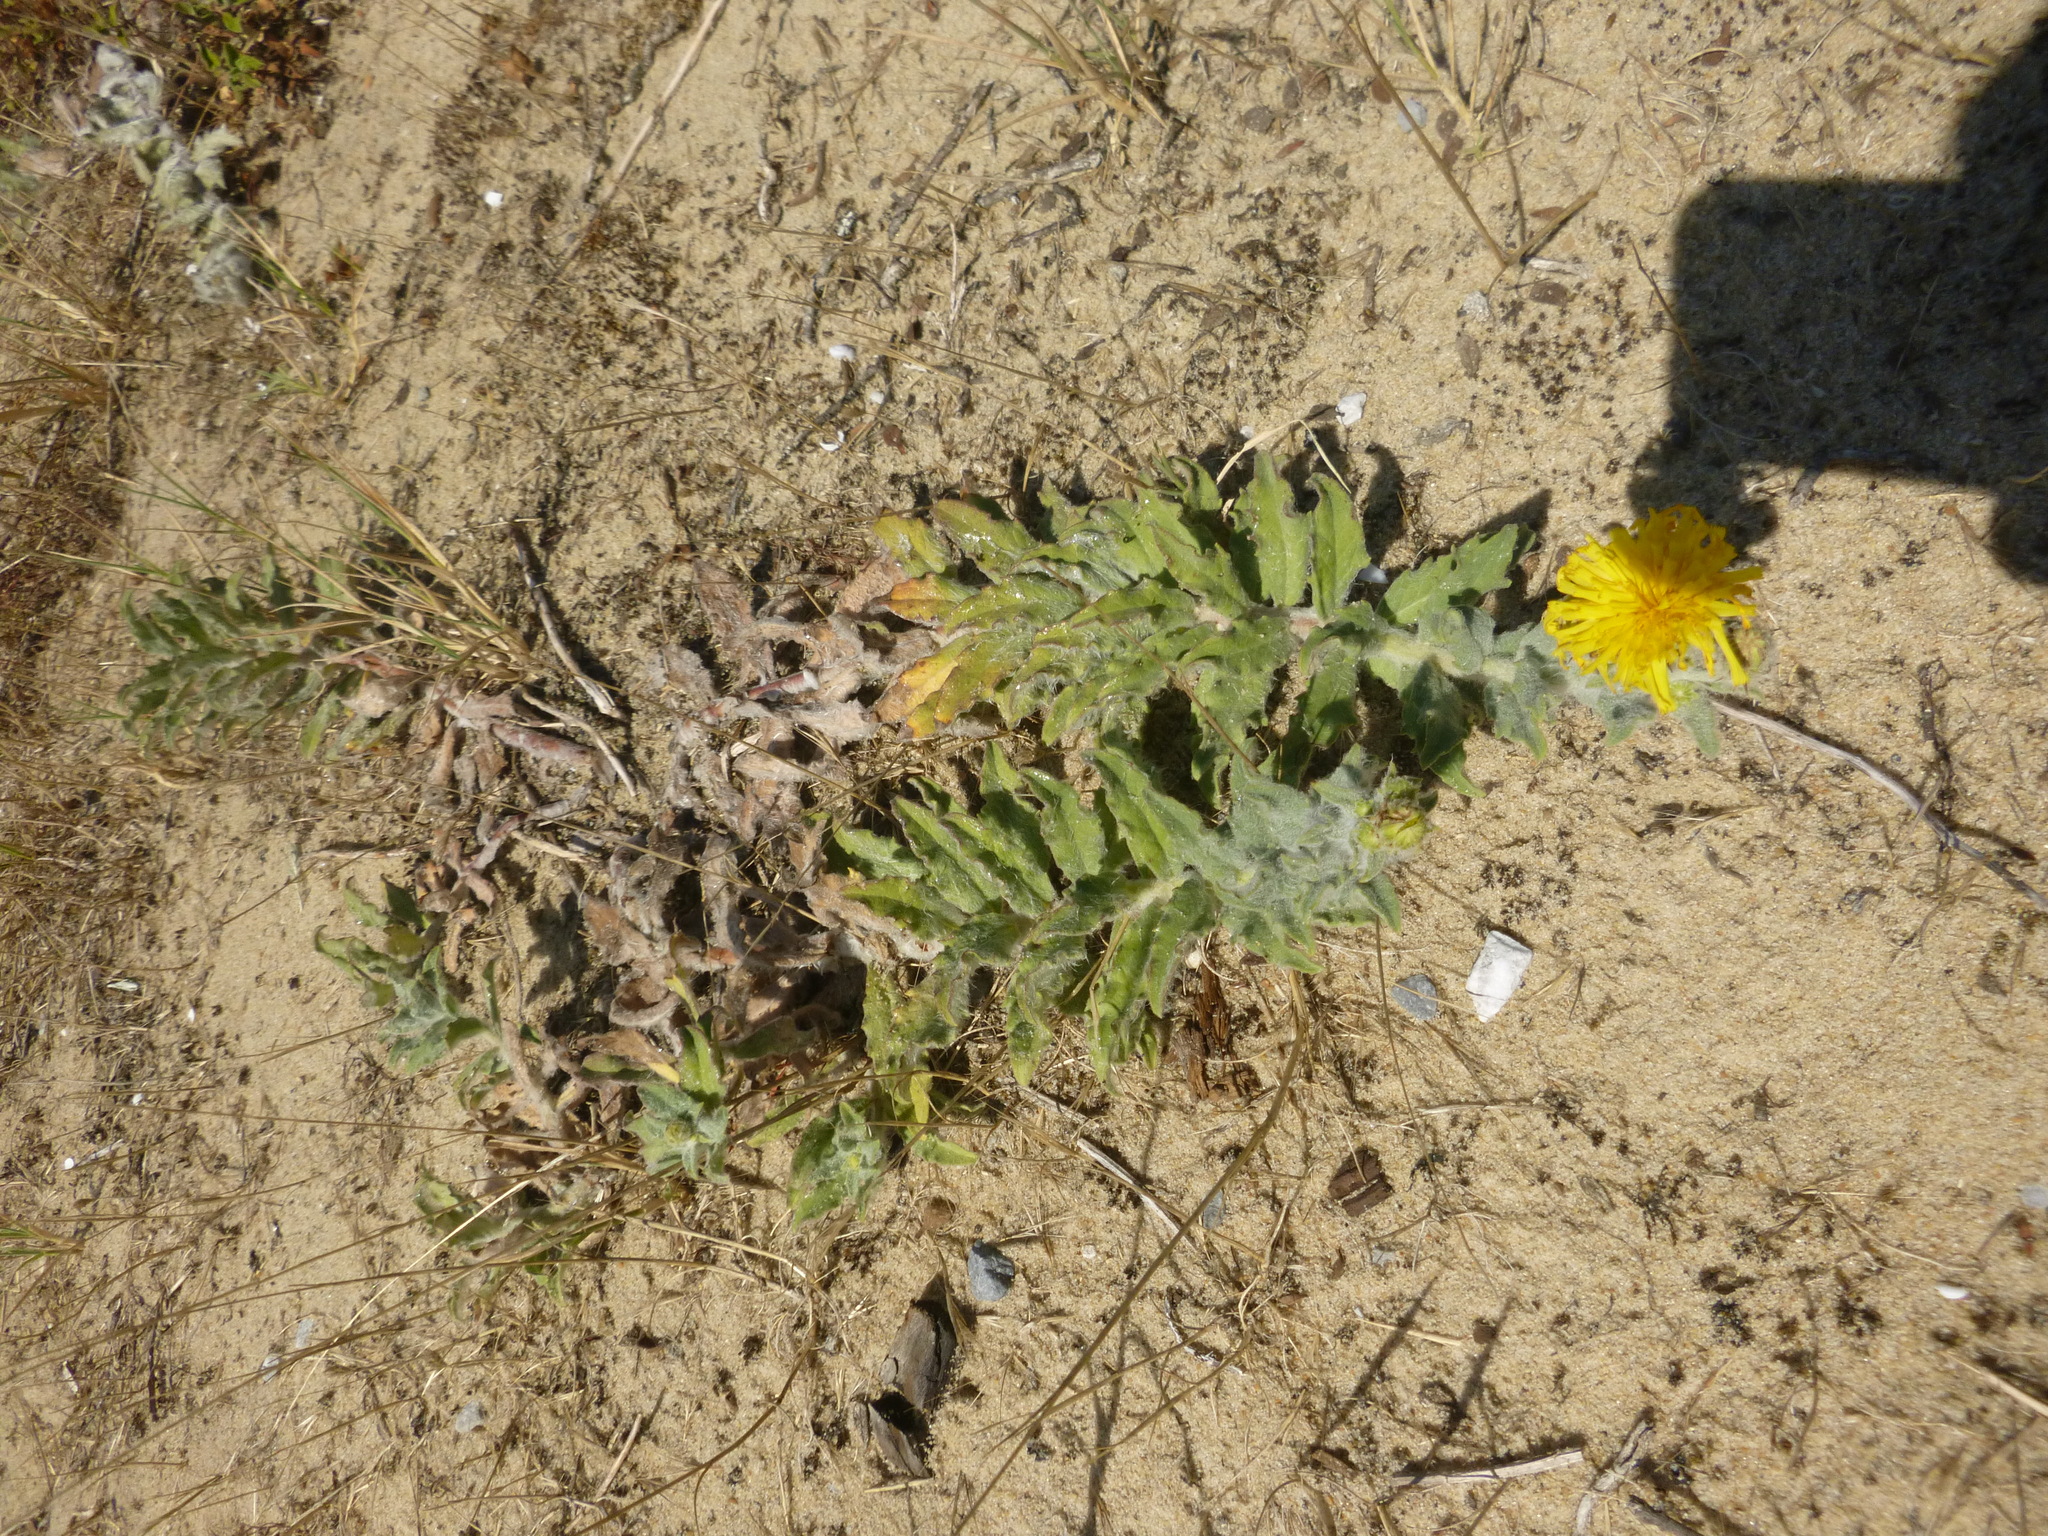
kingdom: Plantae
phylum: Tracheophyta
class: Magnoliopsida
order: Asterales
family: Asteraceae
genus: Hieracium
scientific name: Hieracium eriophorum
